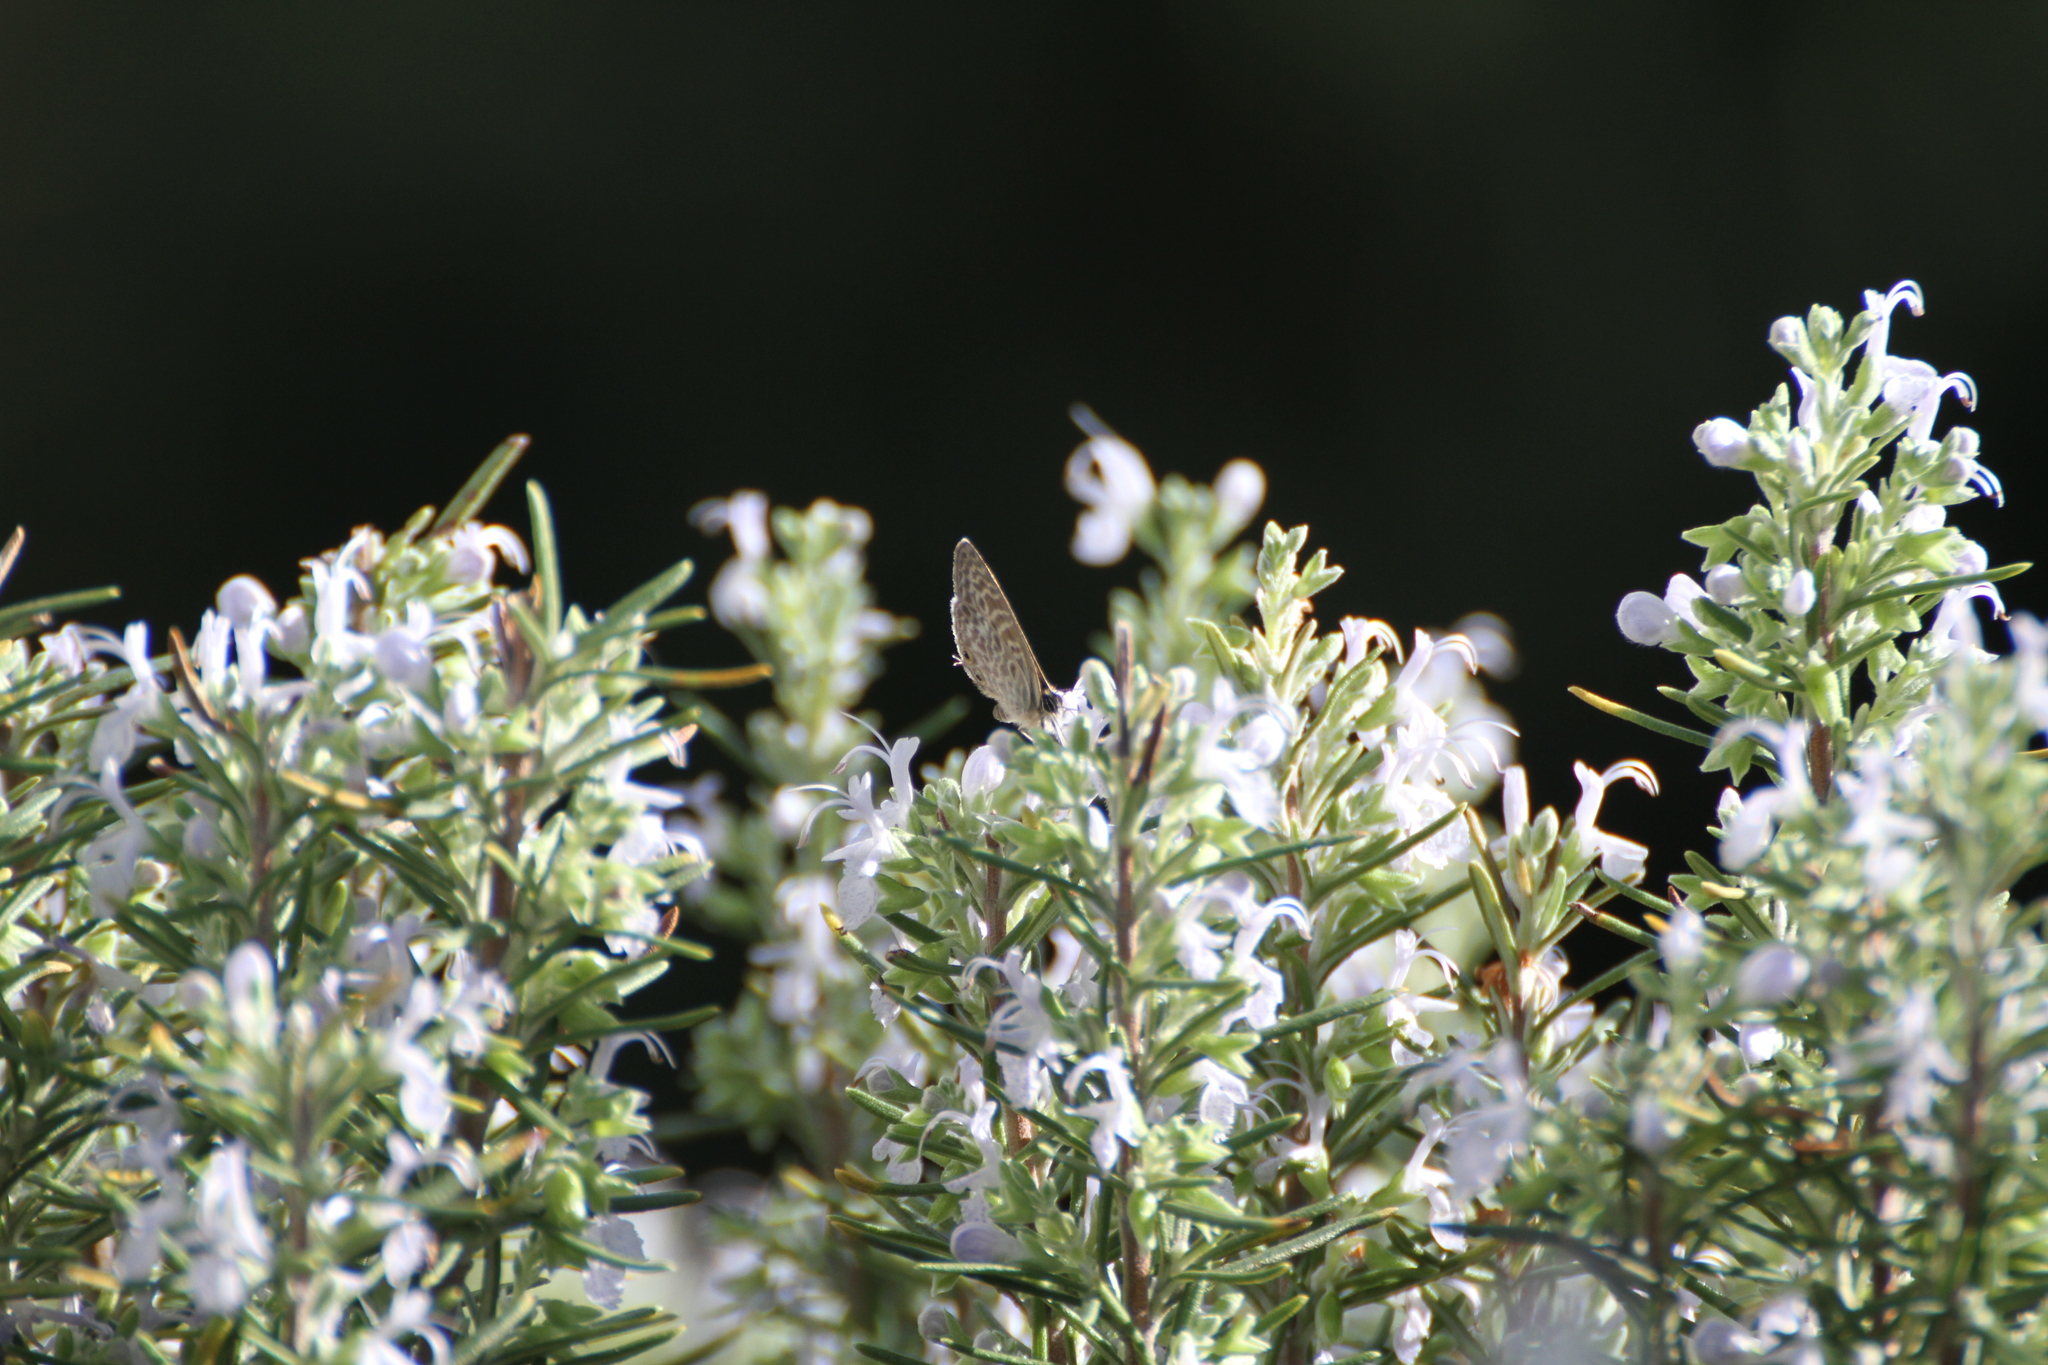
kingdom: Animalia
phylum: Arthropoda
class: Insecta
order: Lepidoptera
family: Lycaenidae
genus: Leptotes
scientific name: Leptotes pirithous
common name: Lang's short-tailed blue
